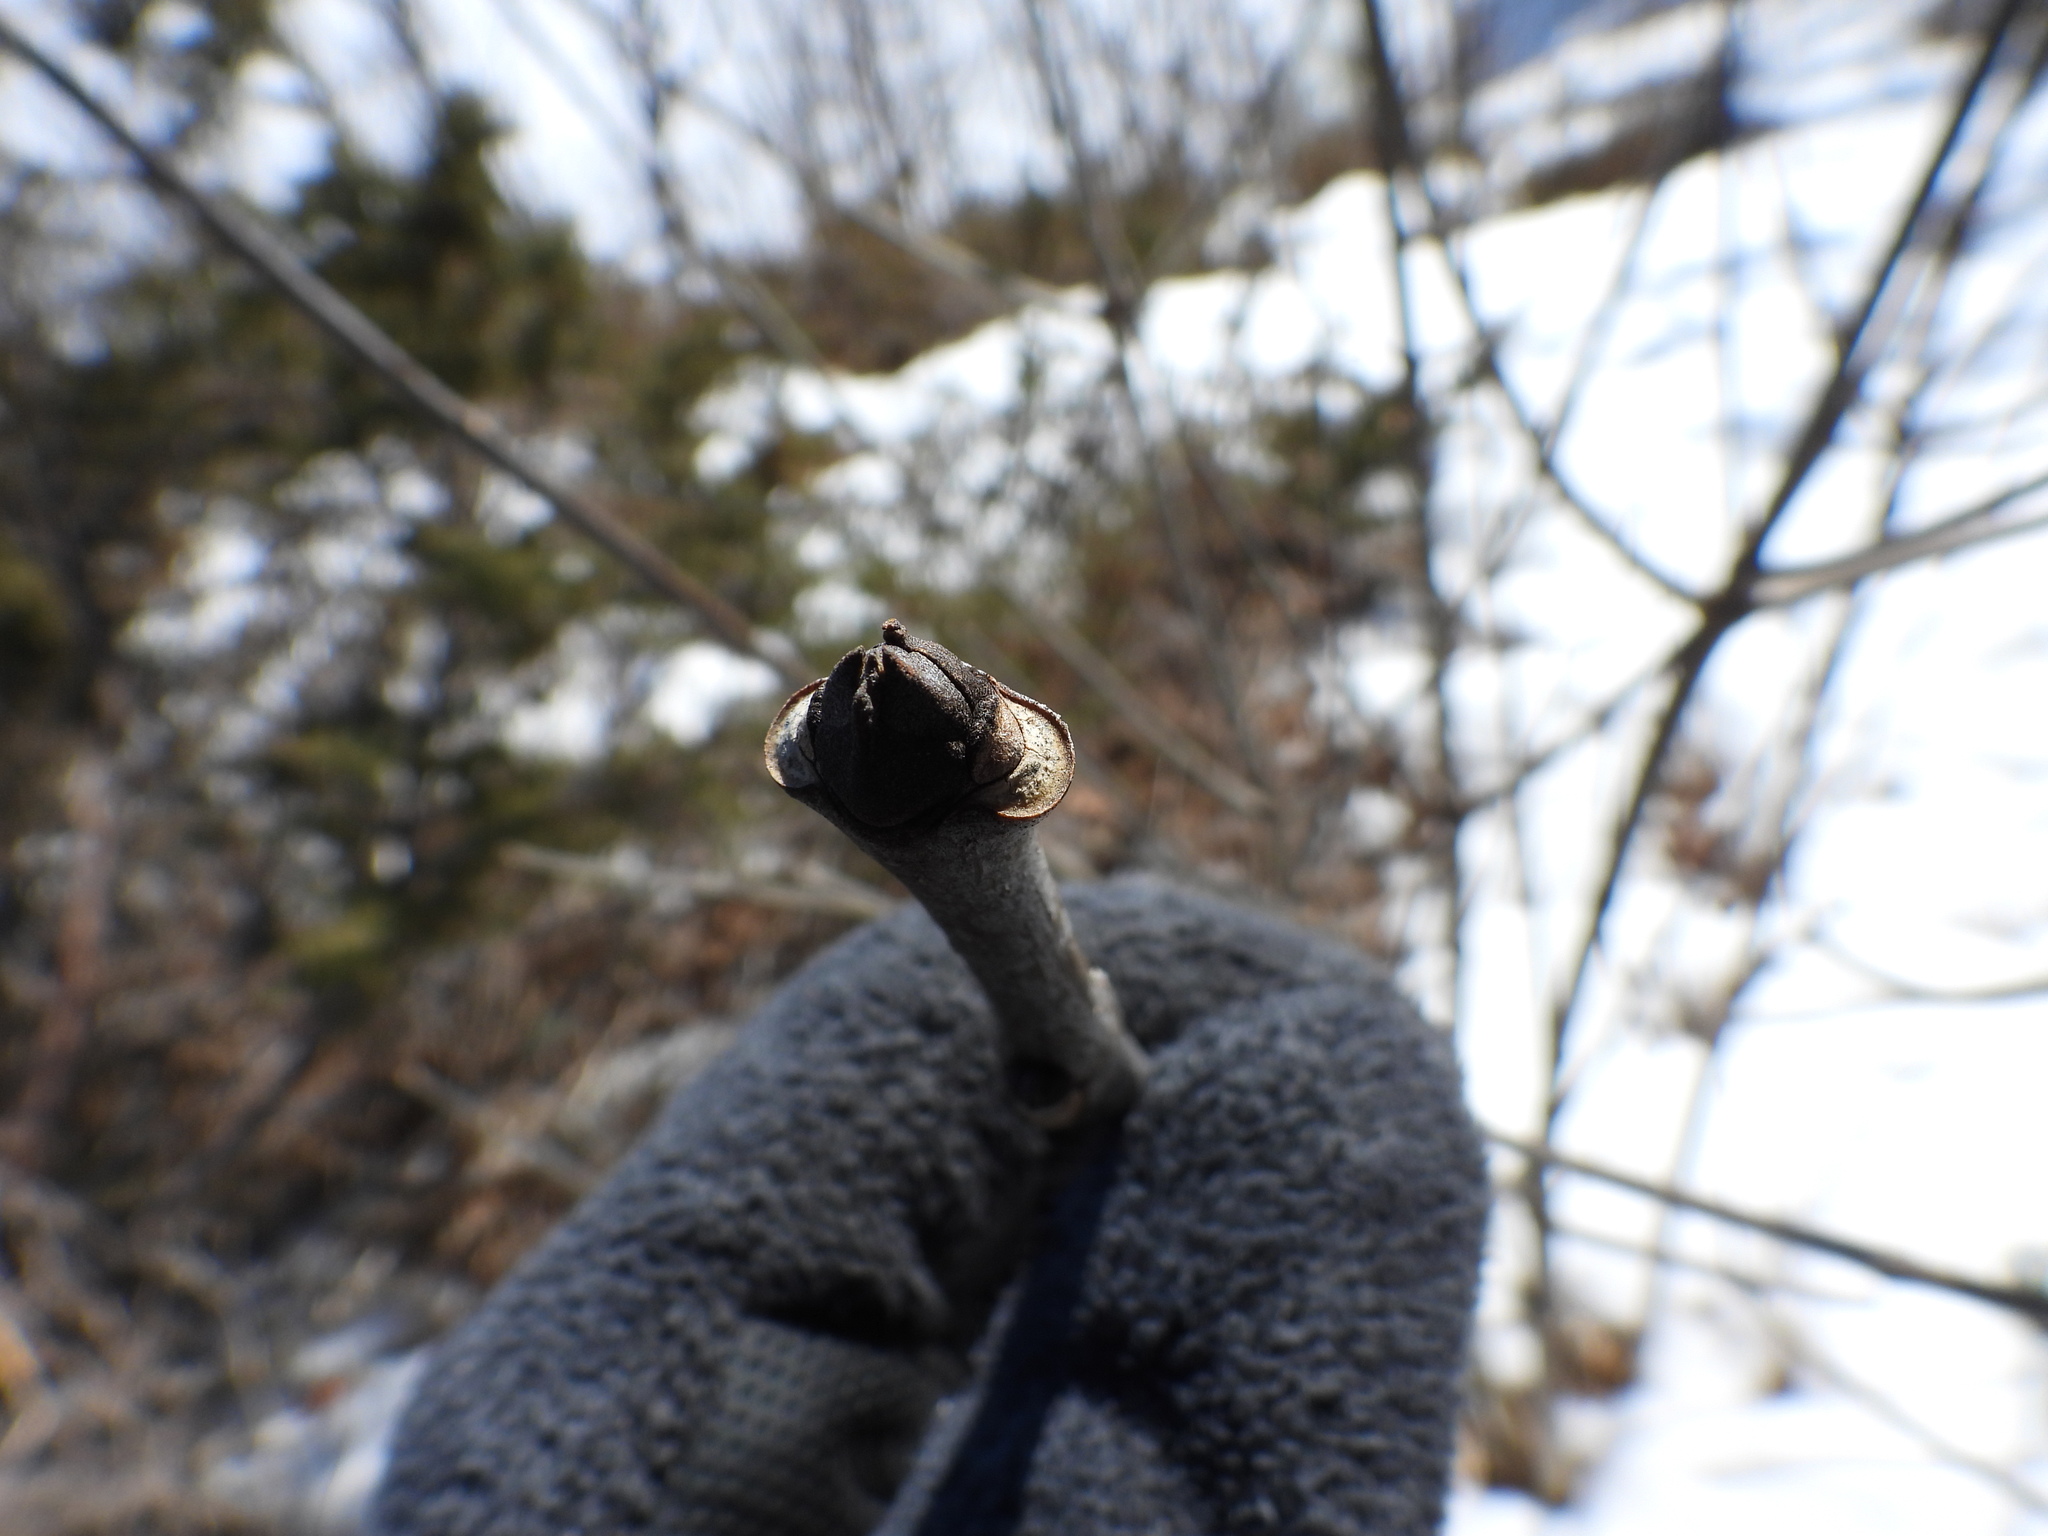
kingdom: Plantae
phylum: Tracheophyta
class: Magnoliopsida
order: Lamiales
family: Oleaceae
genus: Fraxinus
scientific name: Fraxinus americana
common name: White ash
